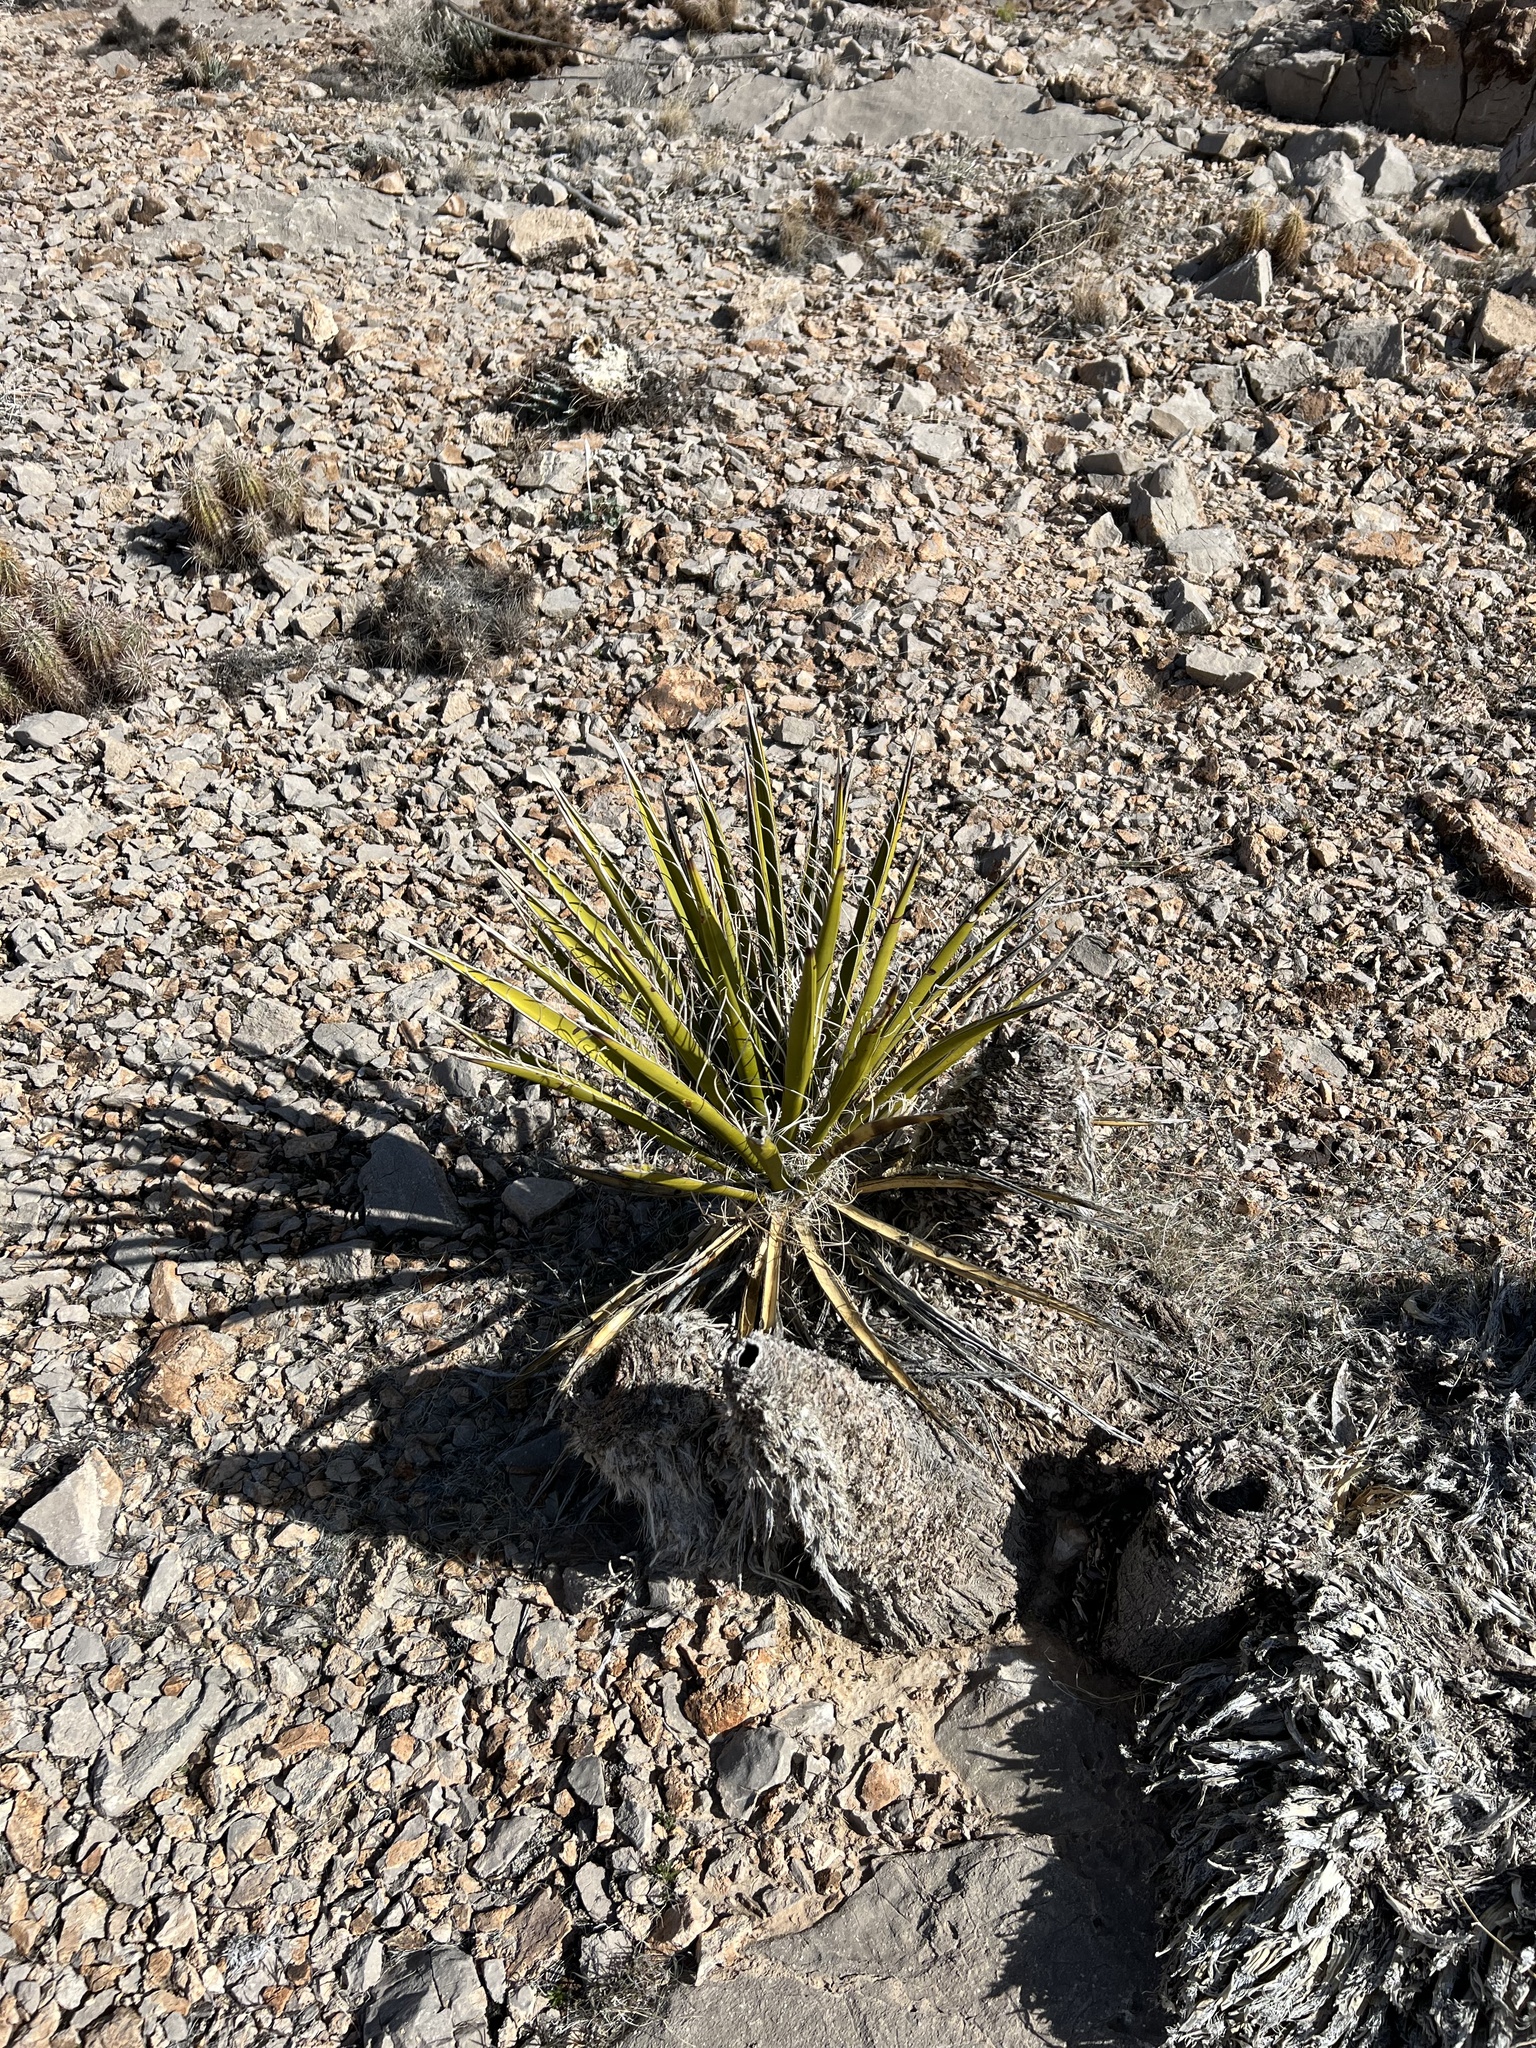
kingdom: Plantae
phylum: Tracheophyta
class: Liliopsida
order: Asparagales
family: Asparagaceae
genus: Yucca
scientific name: Yucca schidigera
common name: Mojave yucca
